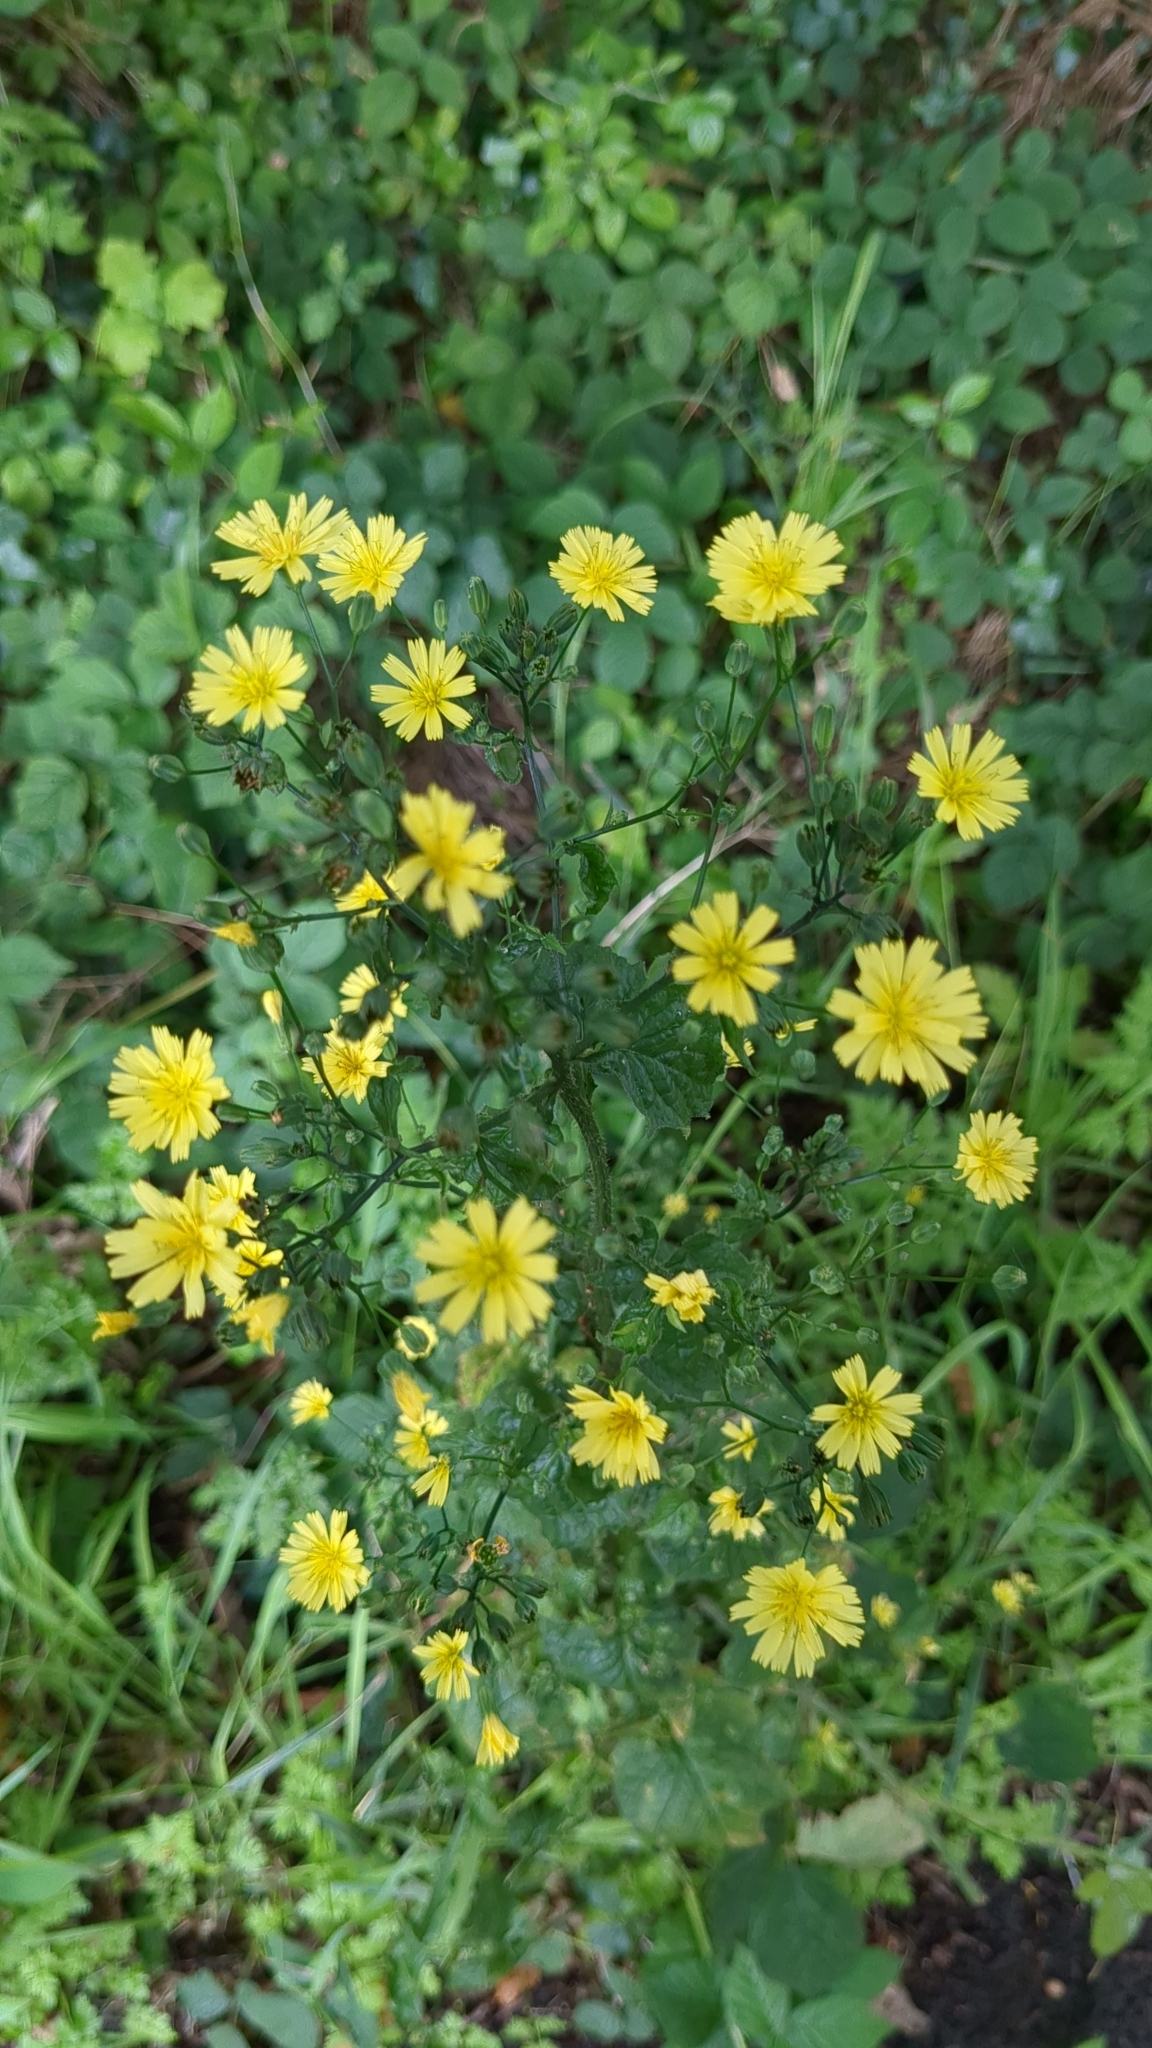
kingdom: Plantae
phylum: Tracheophyta
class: Magnoliopsida
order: Asterales
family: Asteraceae
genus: Lapsana
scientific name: Lapsana communis
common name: Nipplewort
